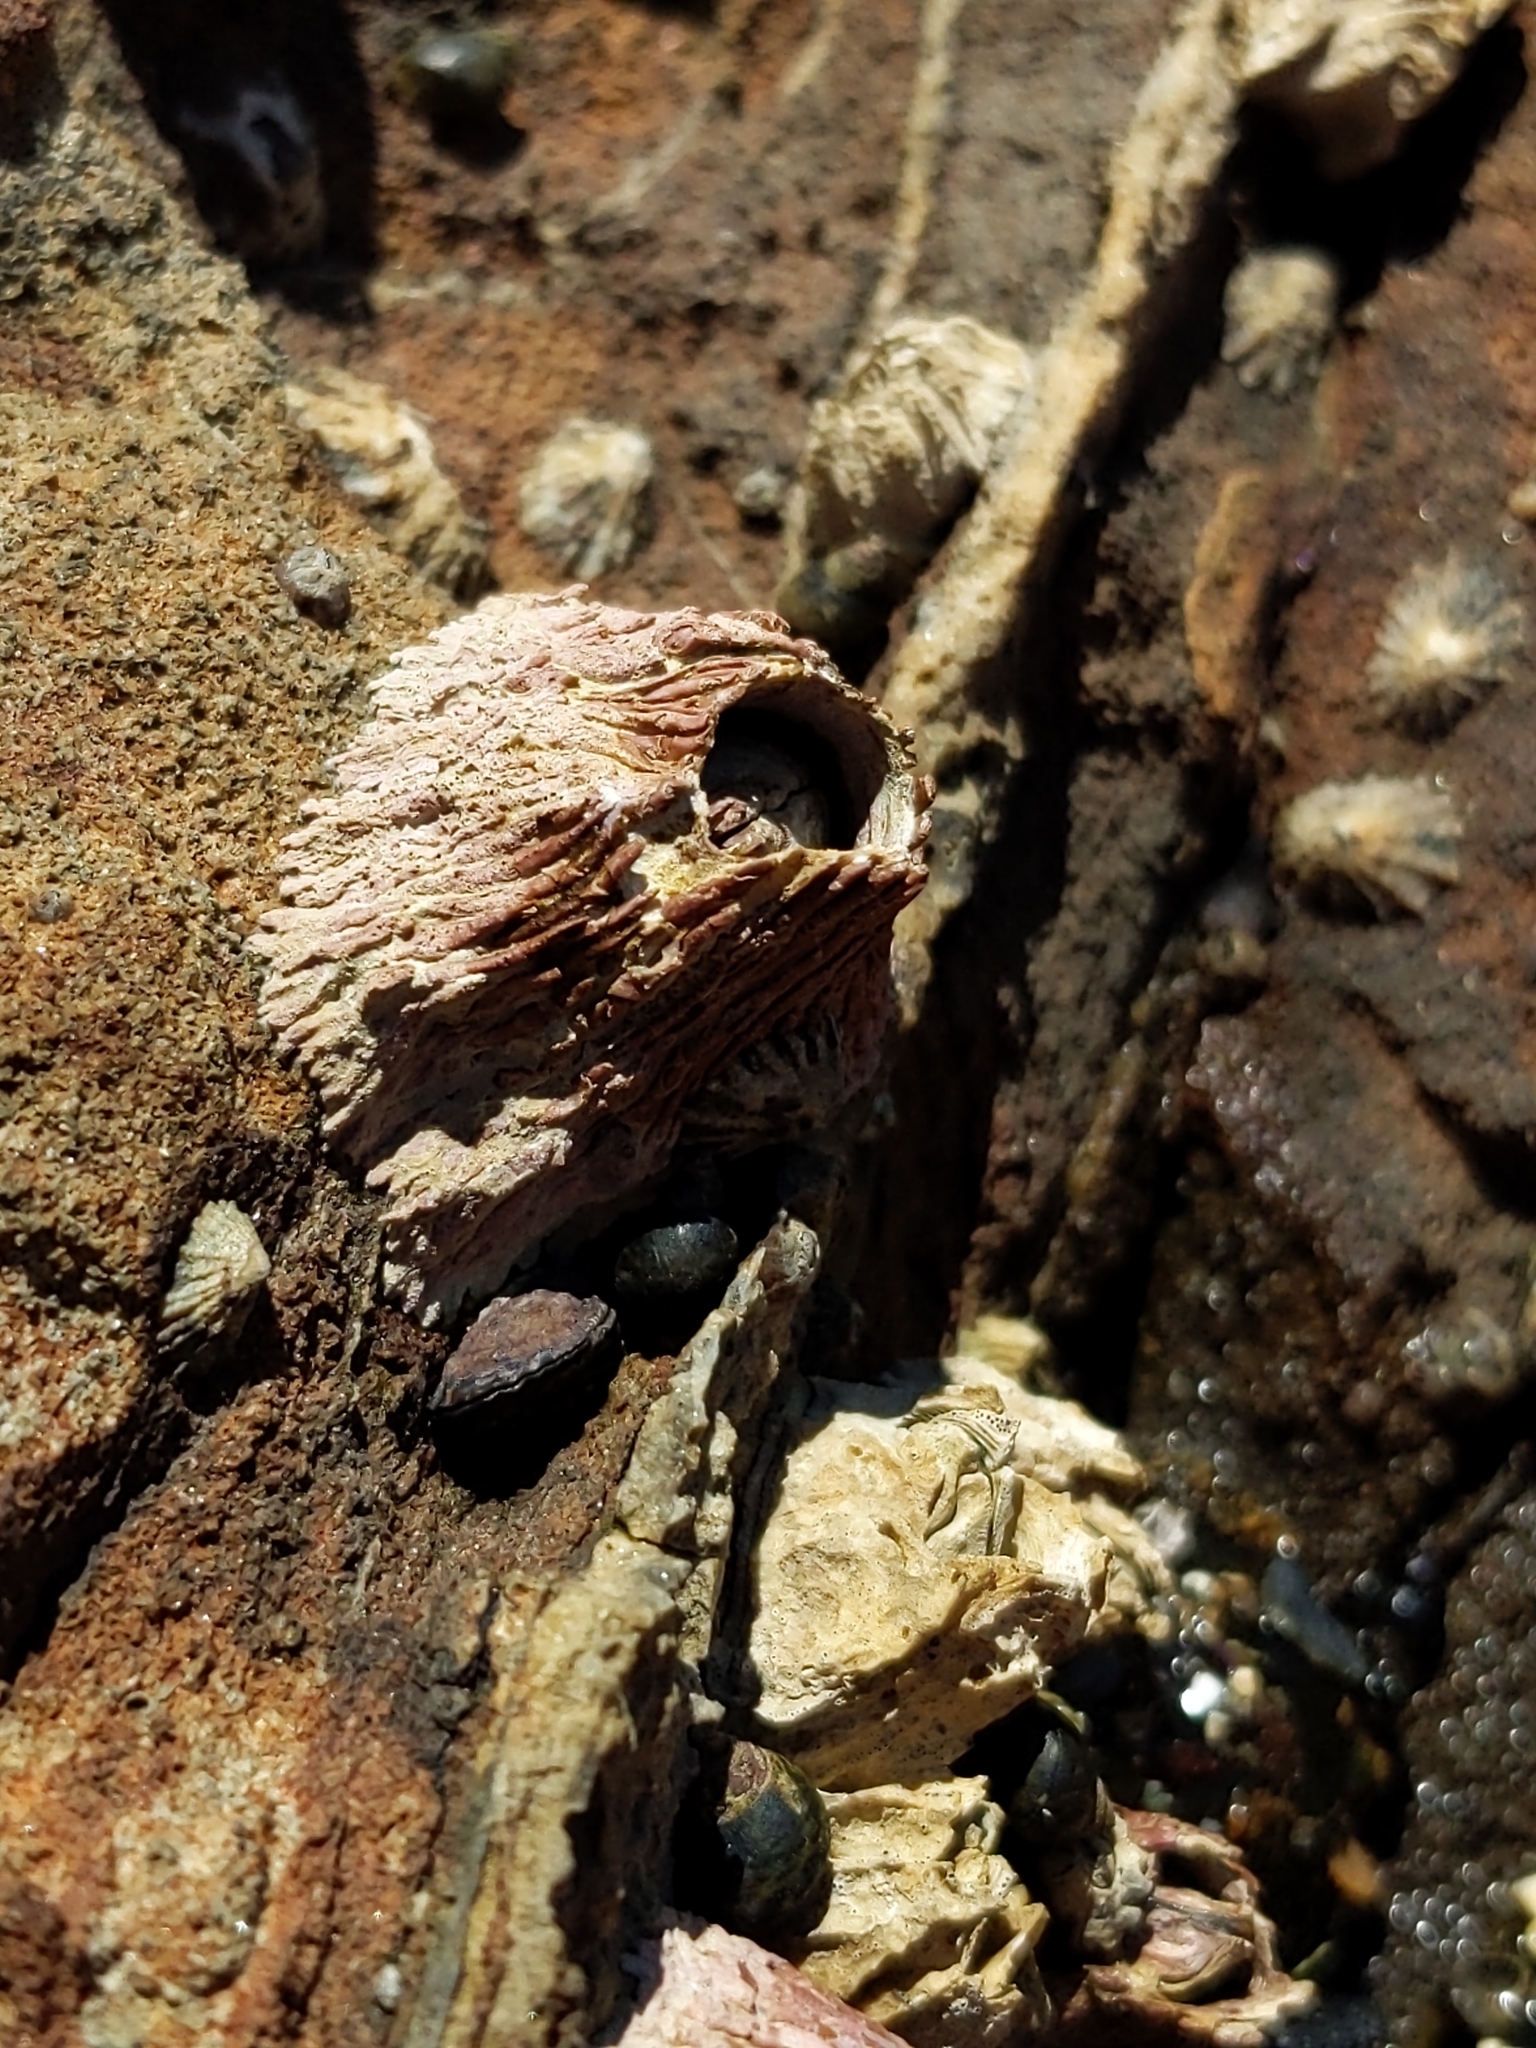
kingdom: Animalia
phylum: Arthropoda
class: Maxillopoda
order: Sessilia
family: Tetraclitidae
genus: Tetraclita
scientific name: Tetraclita rubescens
